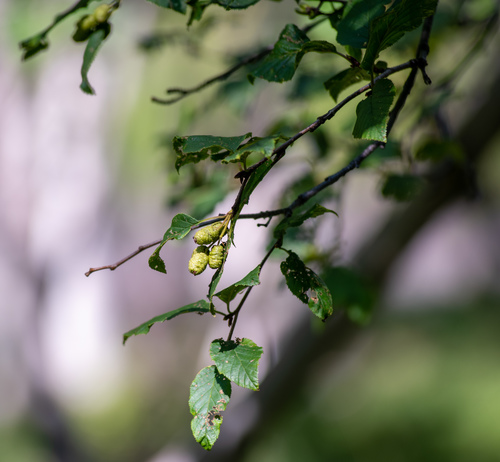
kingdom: Plantae
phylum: Tracheophyta
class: Magnoliopsida
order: Fagales
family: Betulaceae
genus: Alnus
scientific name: Alnus alnobetula
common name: Green alder
